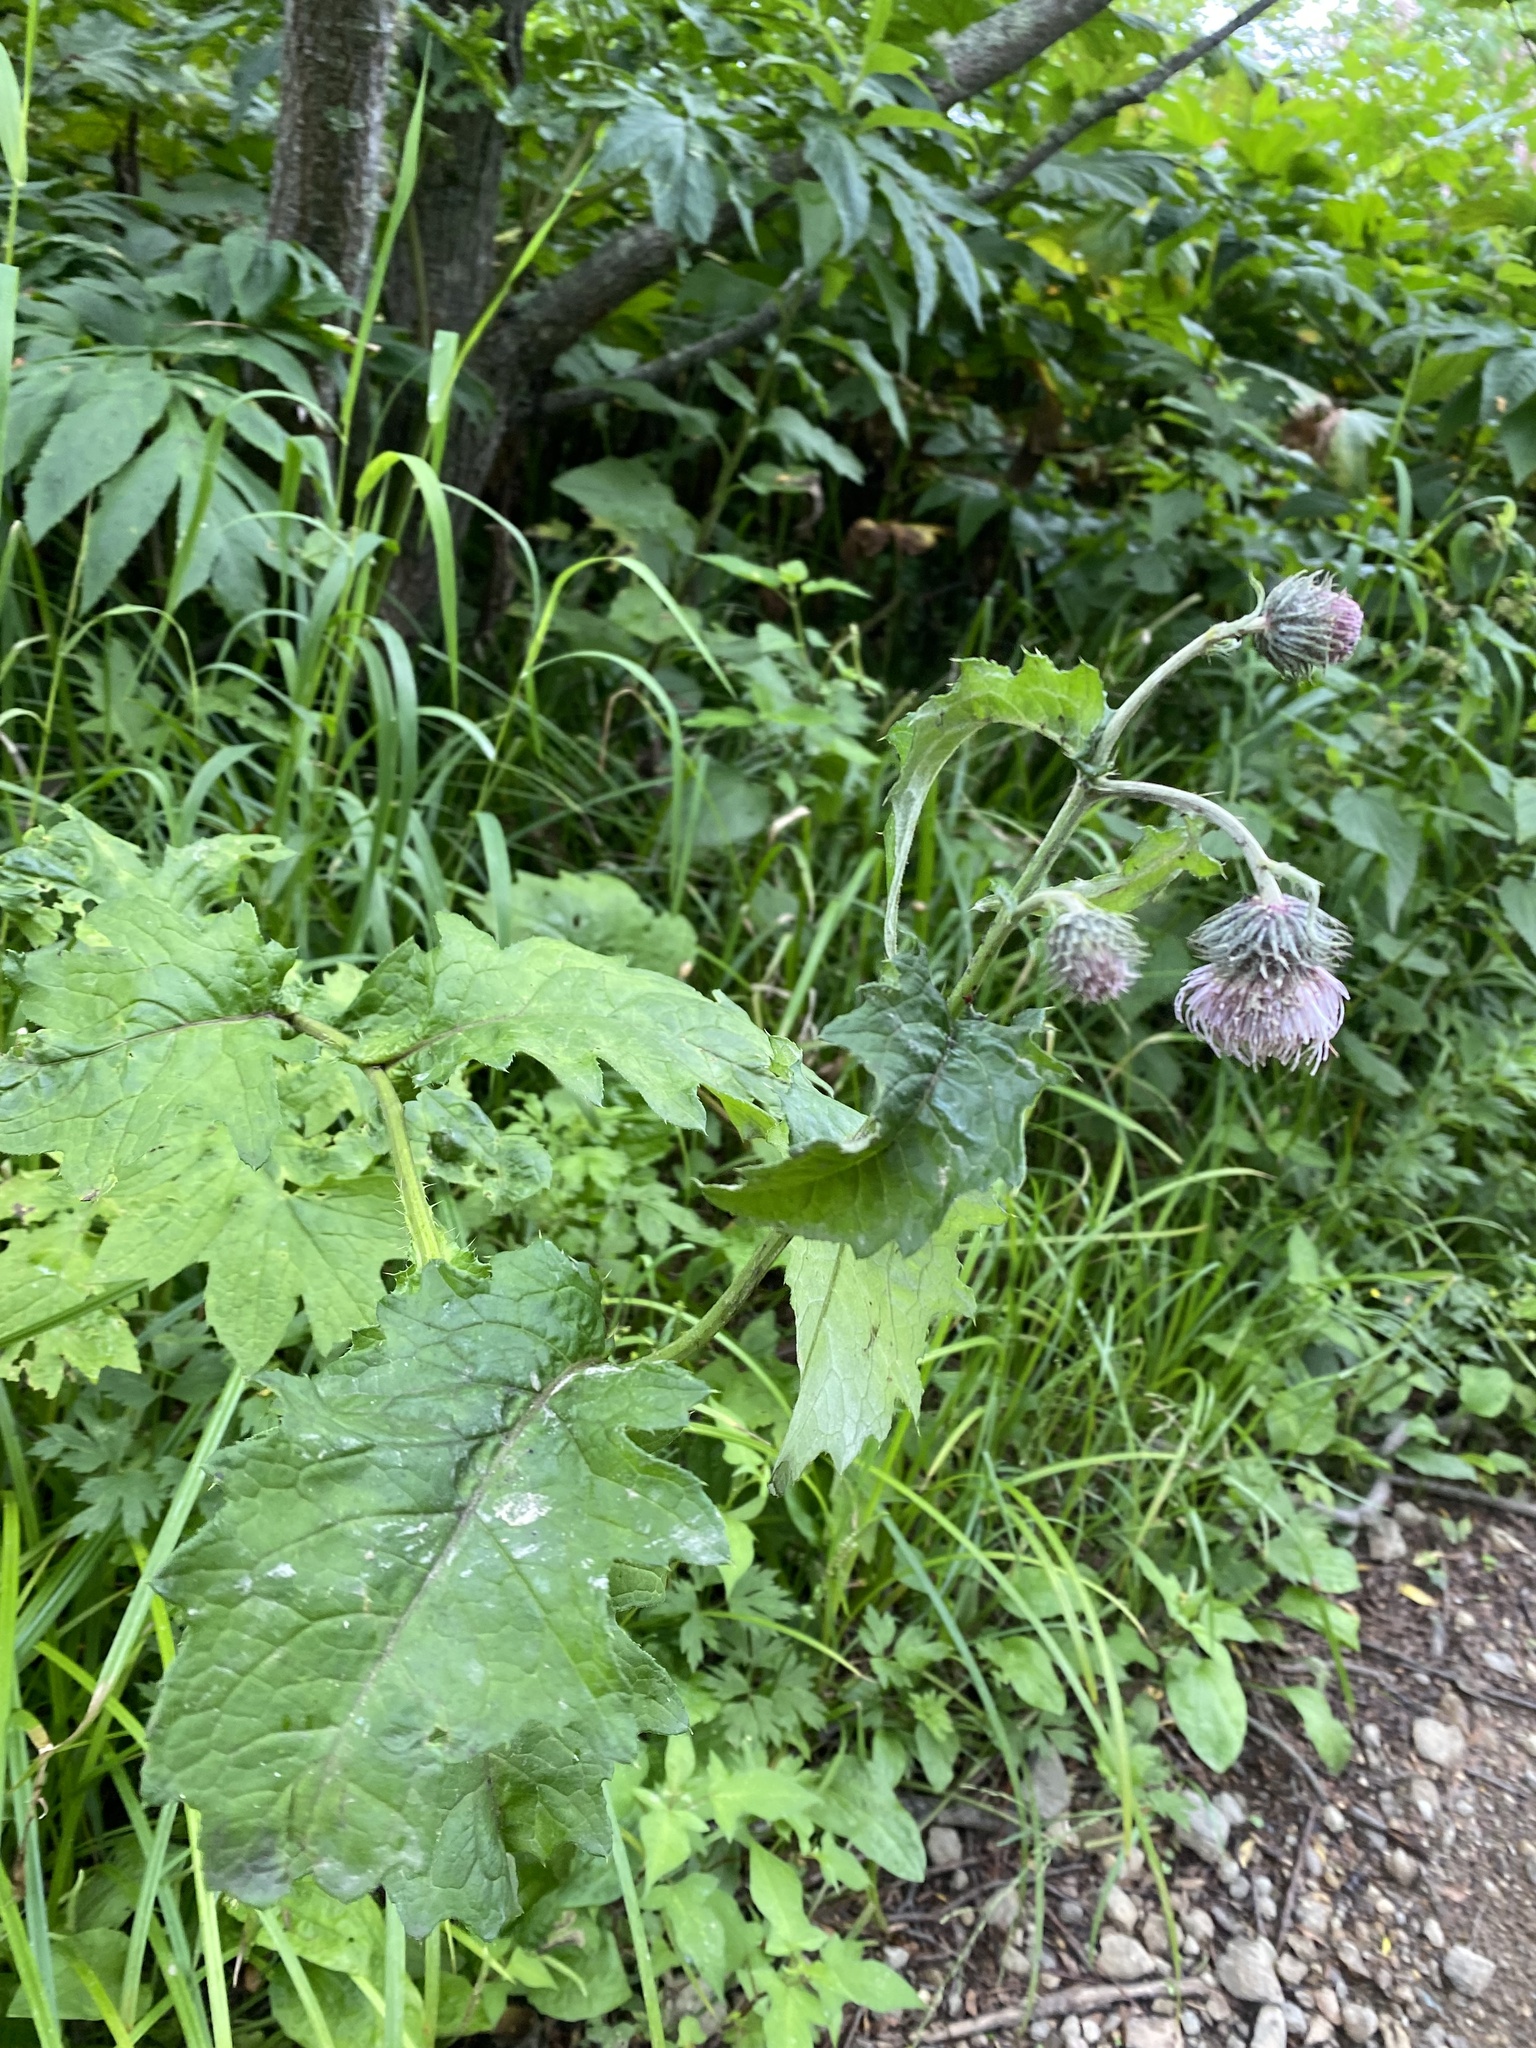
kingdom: Plantae
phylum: Tracheophyta
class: Magnoliopsida
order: Asterales
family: Asteraceae
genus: Cirsium
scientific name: Cirsium kamtschaticum
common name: Kamchatka thistle
